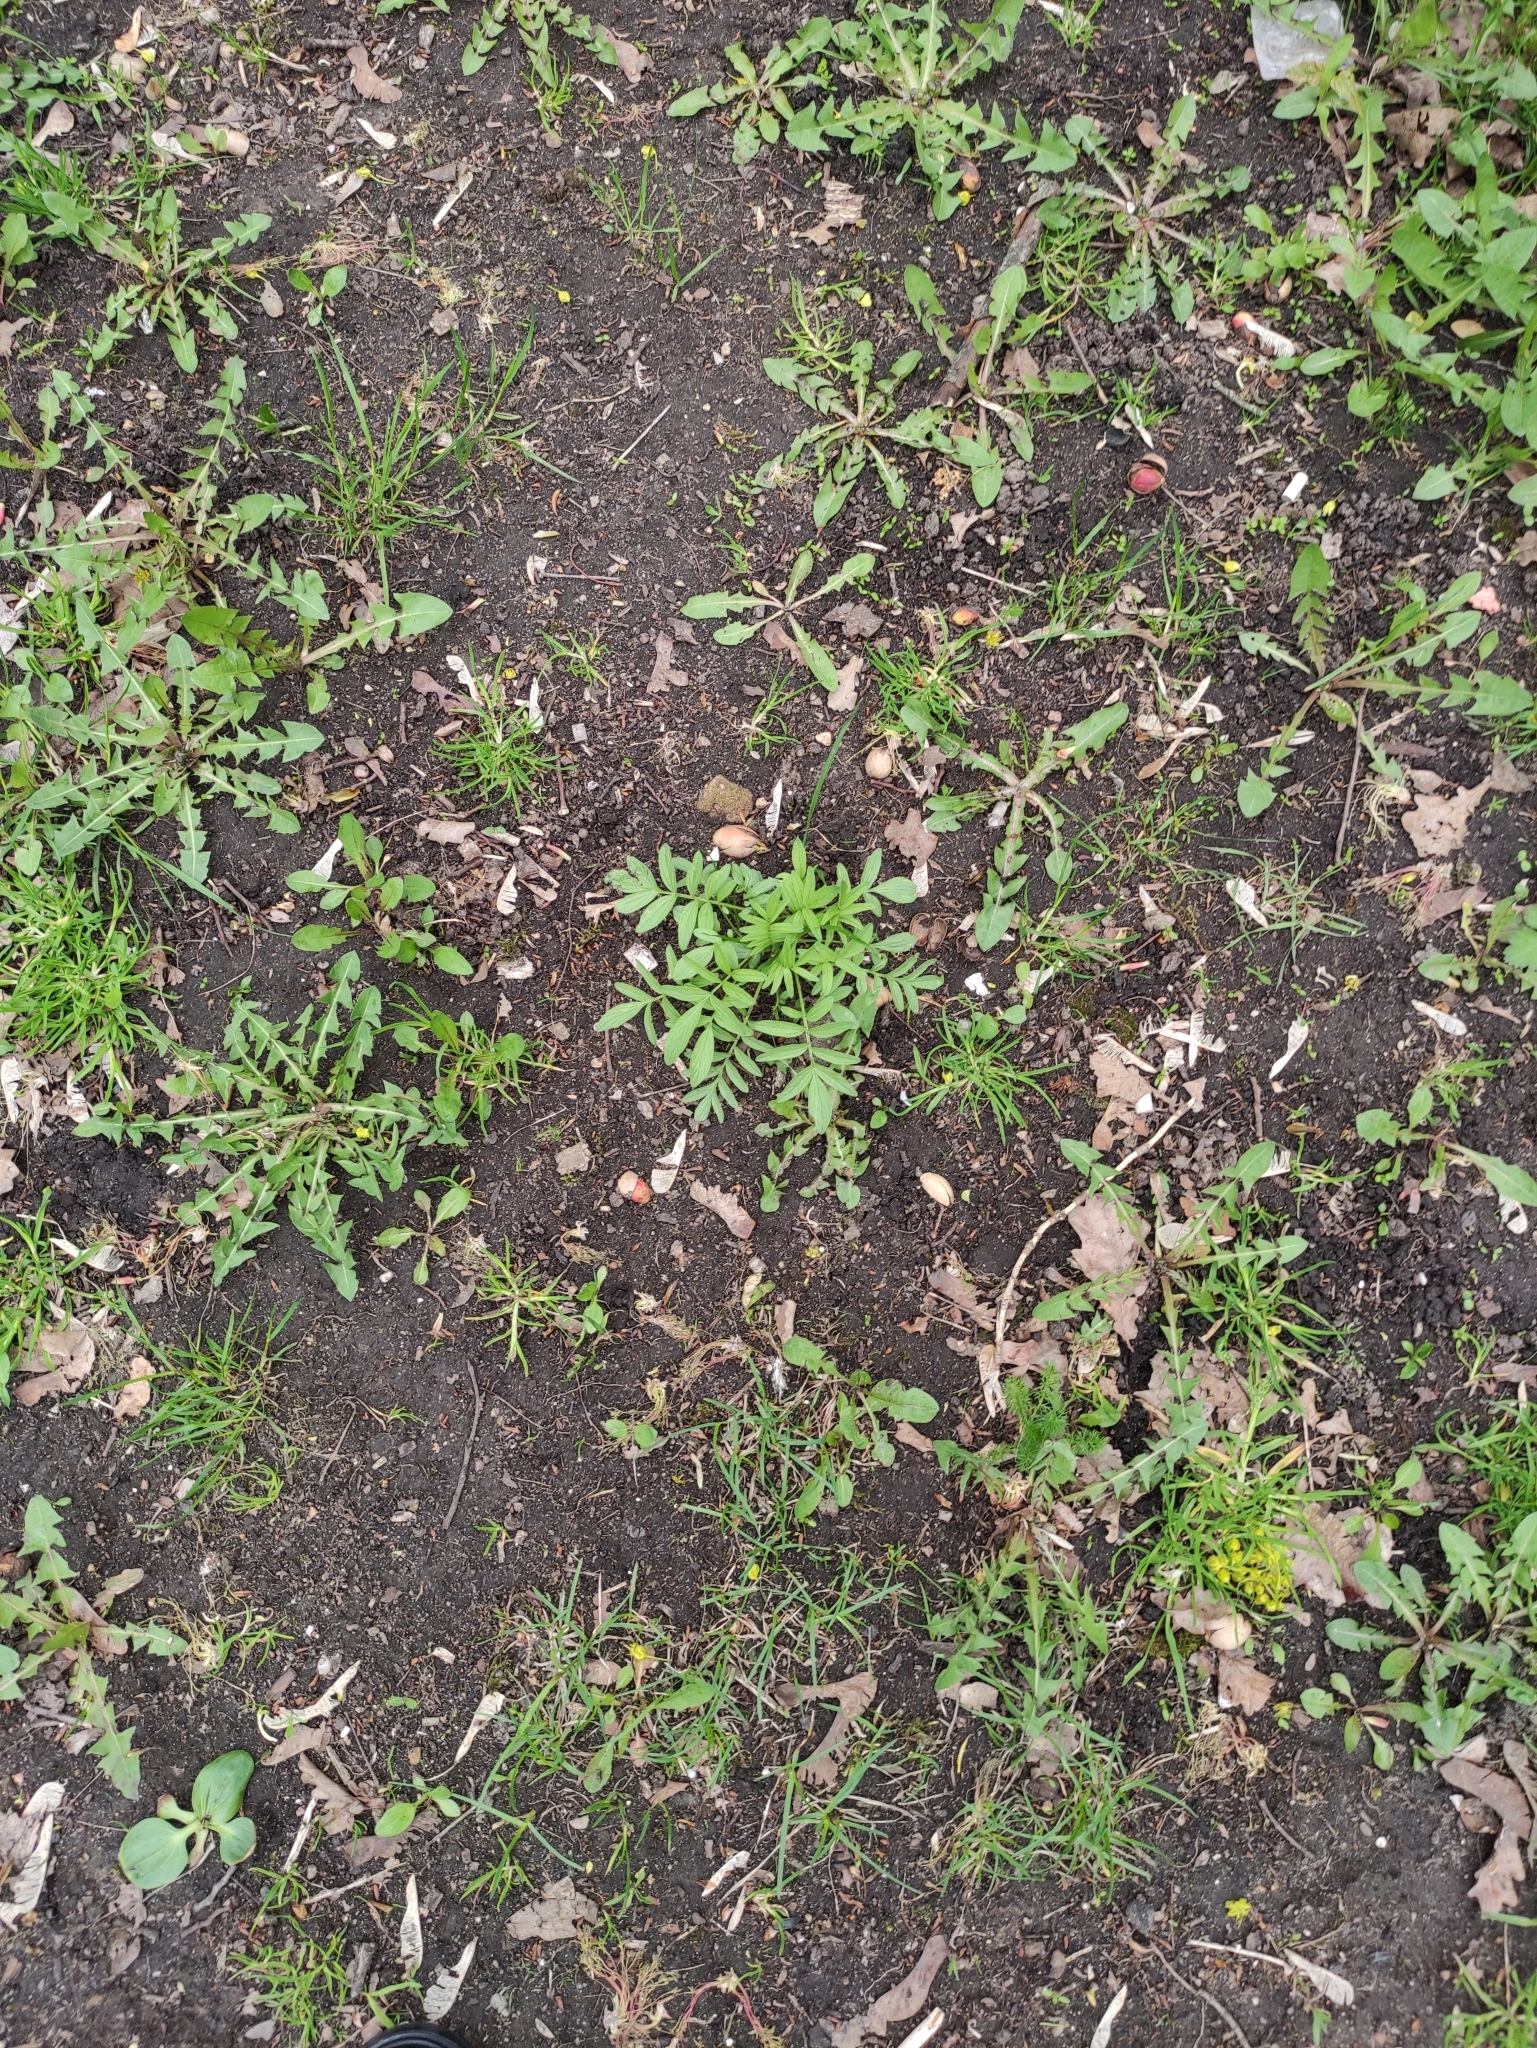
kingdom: Plantae
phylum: Tracheophyta
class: Magnoliopsida
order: Dipsacales
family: Caprifoliaceae
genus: Valeriana
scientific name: Valeriana officinalis
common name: Common valerian
